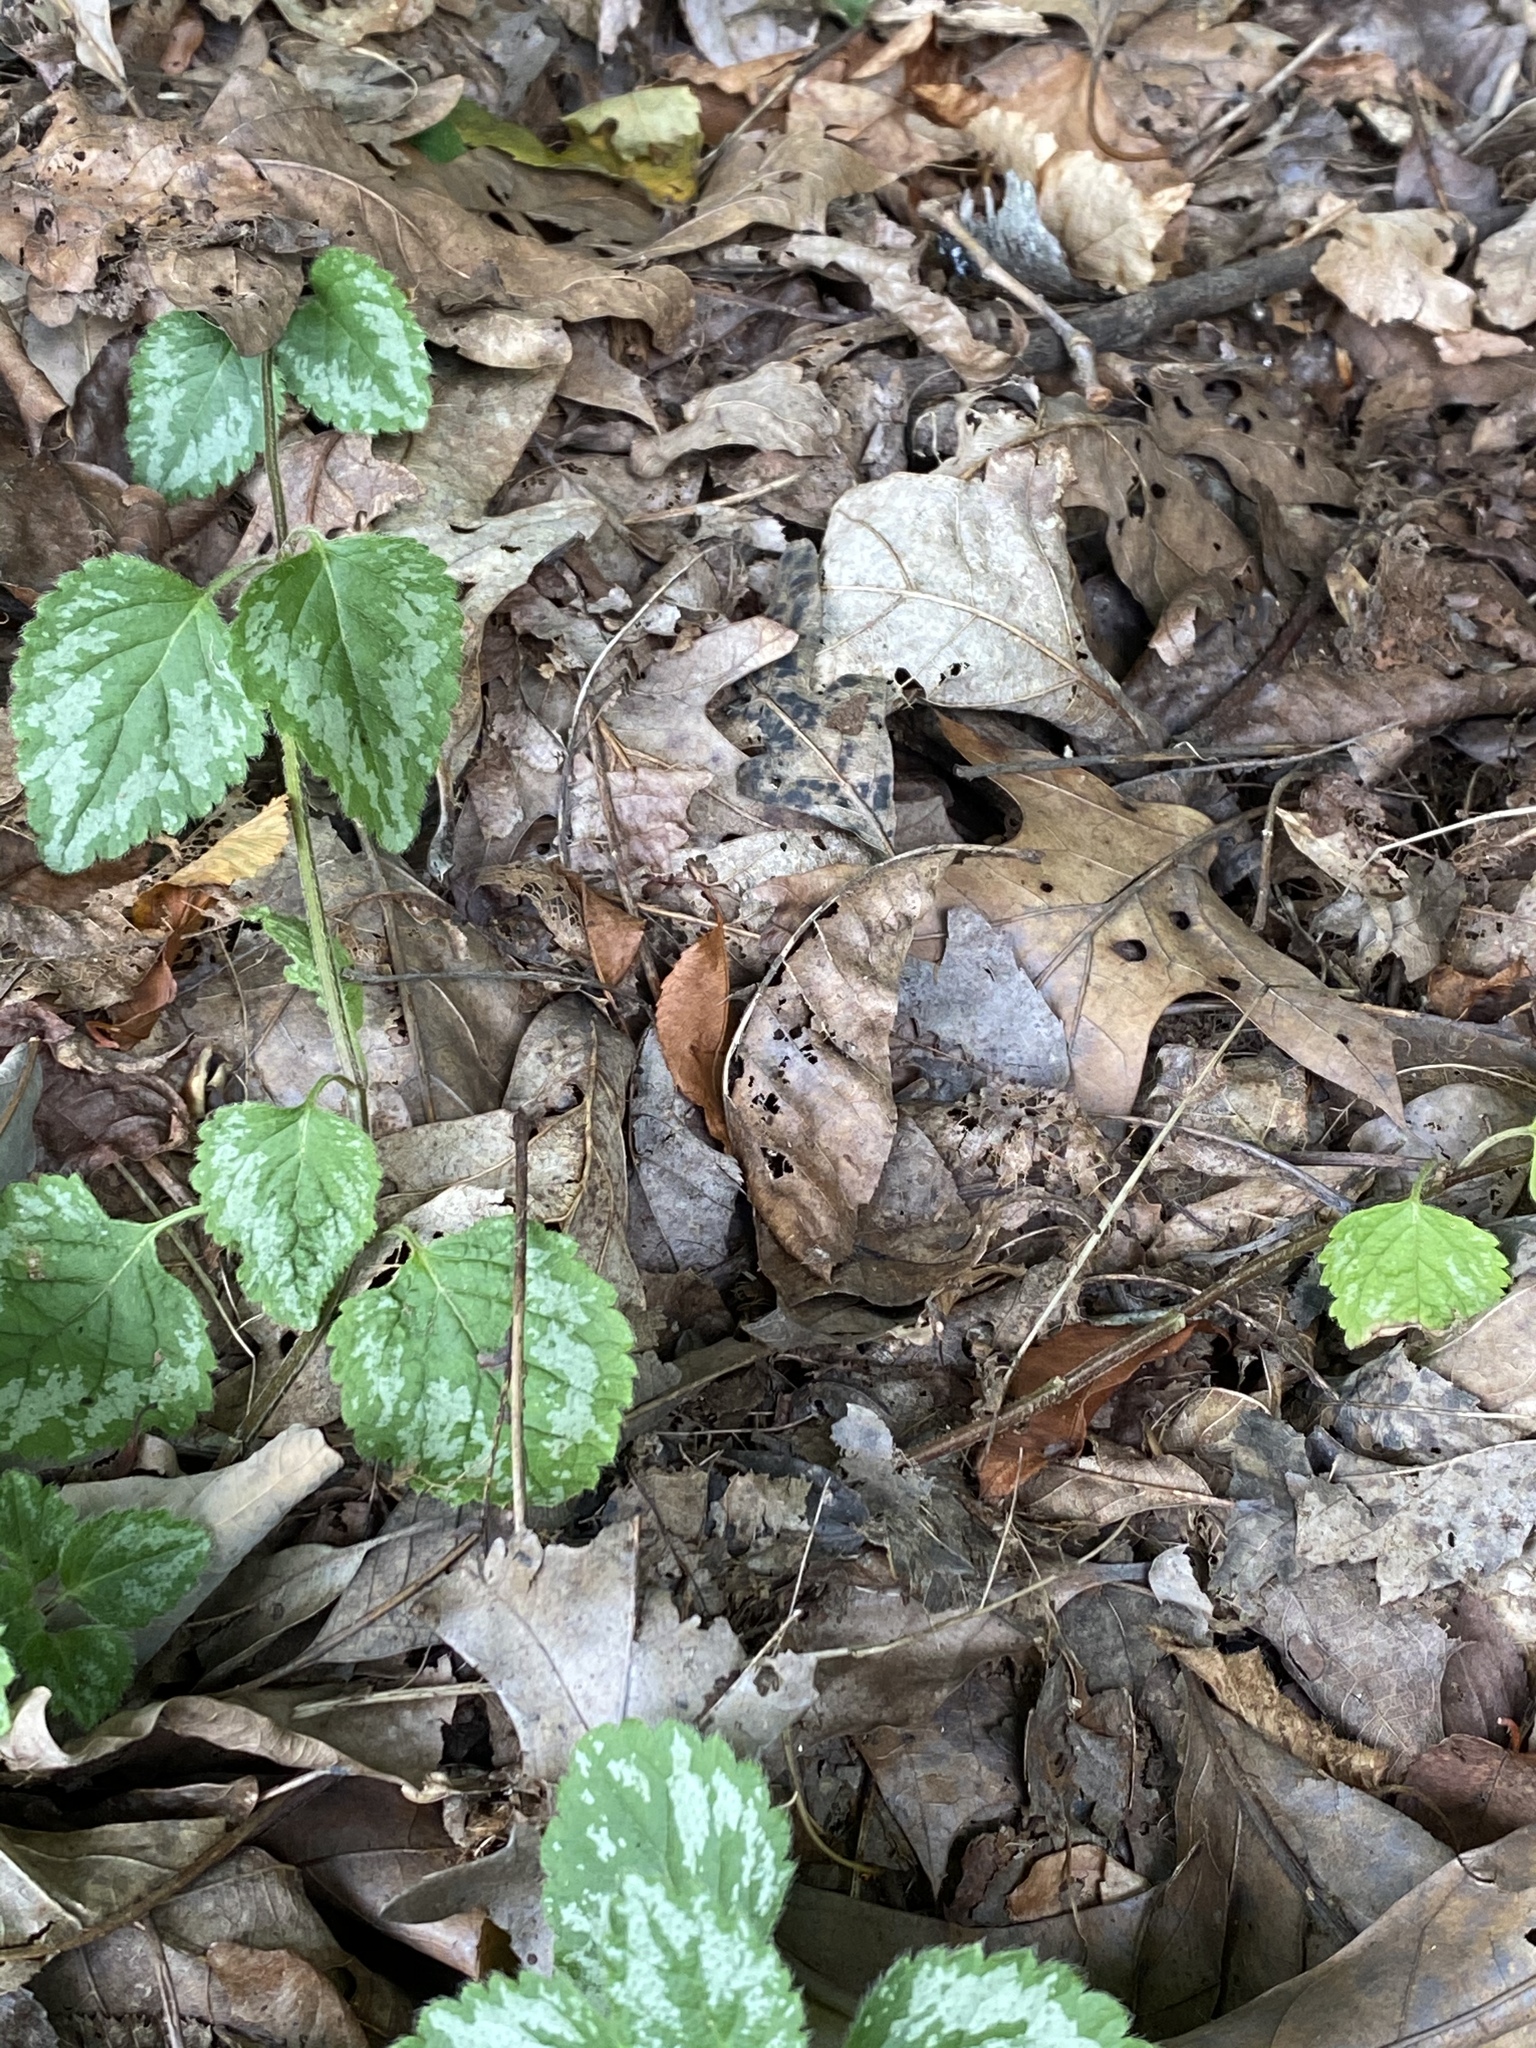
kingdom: Plantae
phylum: Tracheophyta
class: Magnoliopsida
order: Lamiales
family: Lamiaceae
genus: Lamium
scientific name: Lamium galeobdolon
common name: Yellow archangel
